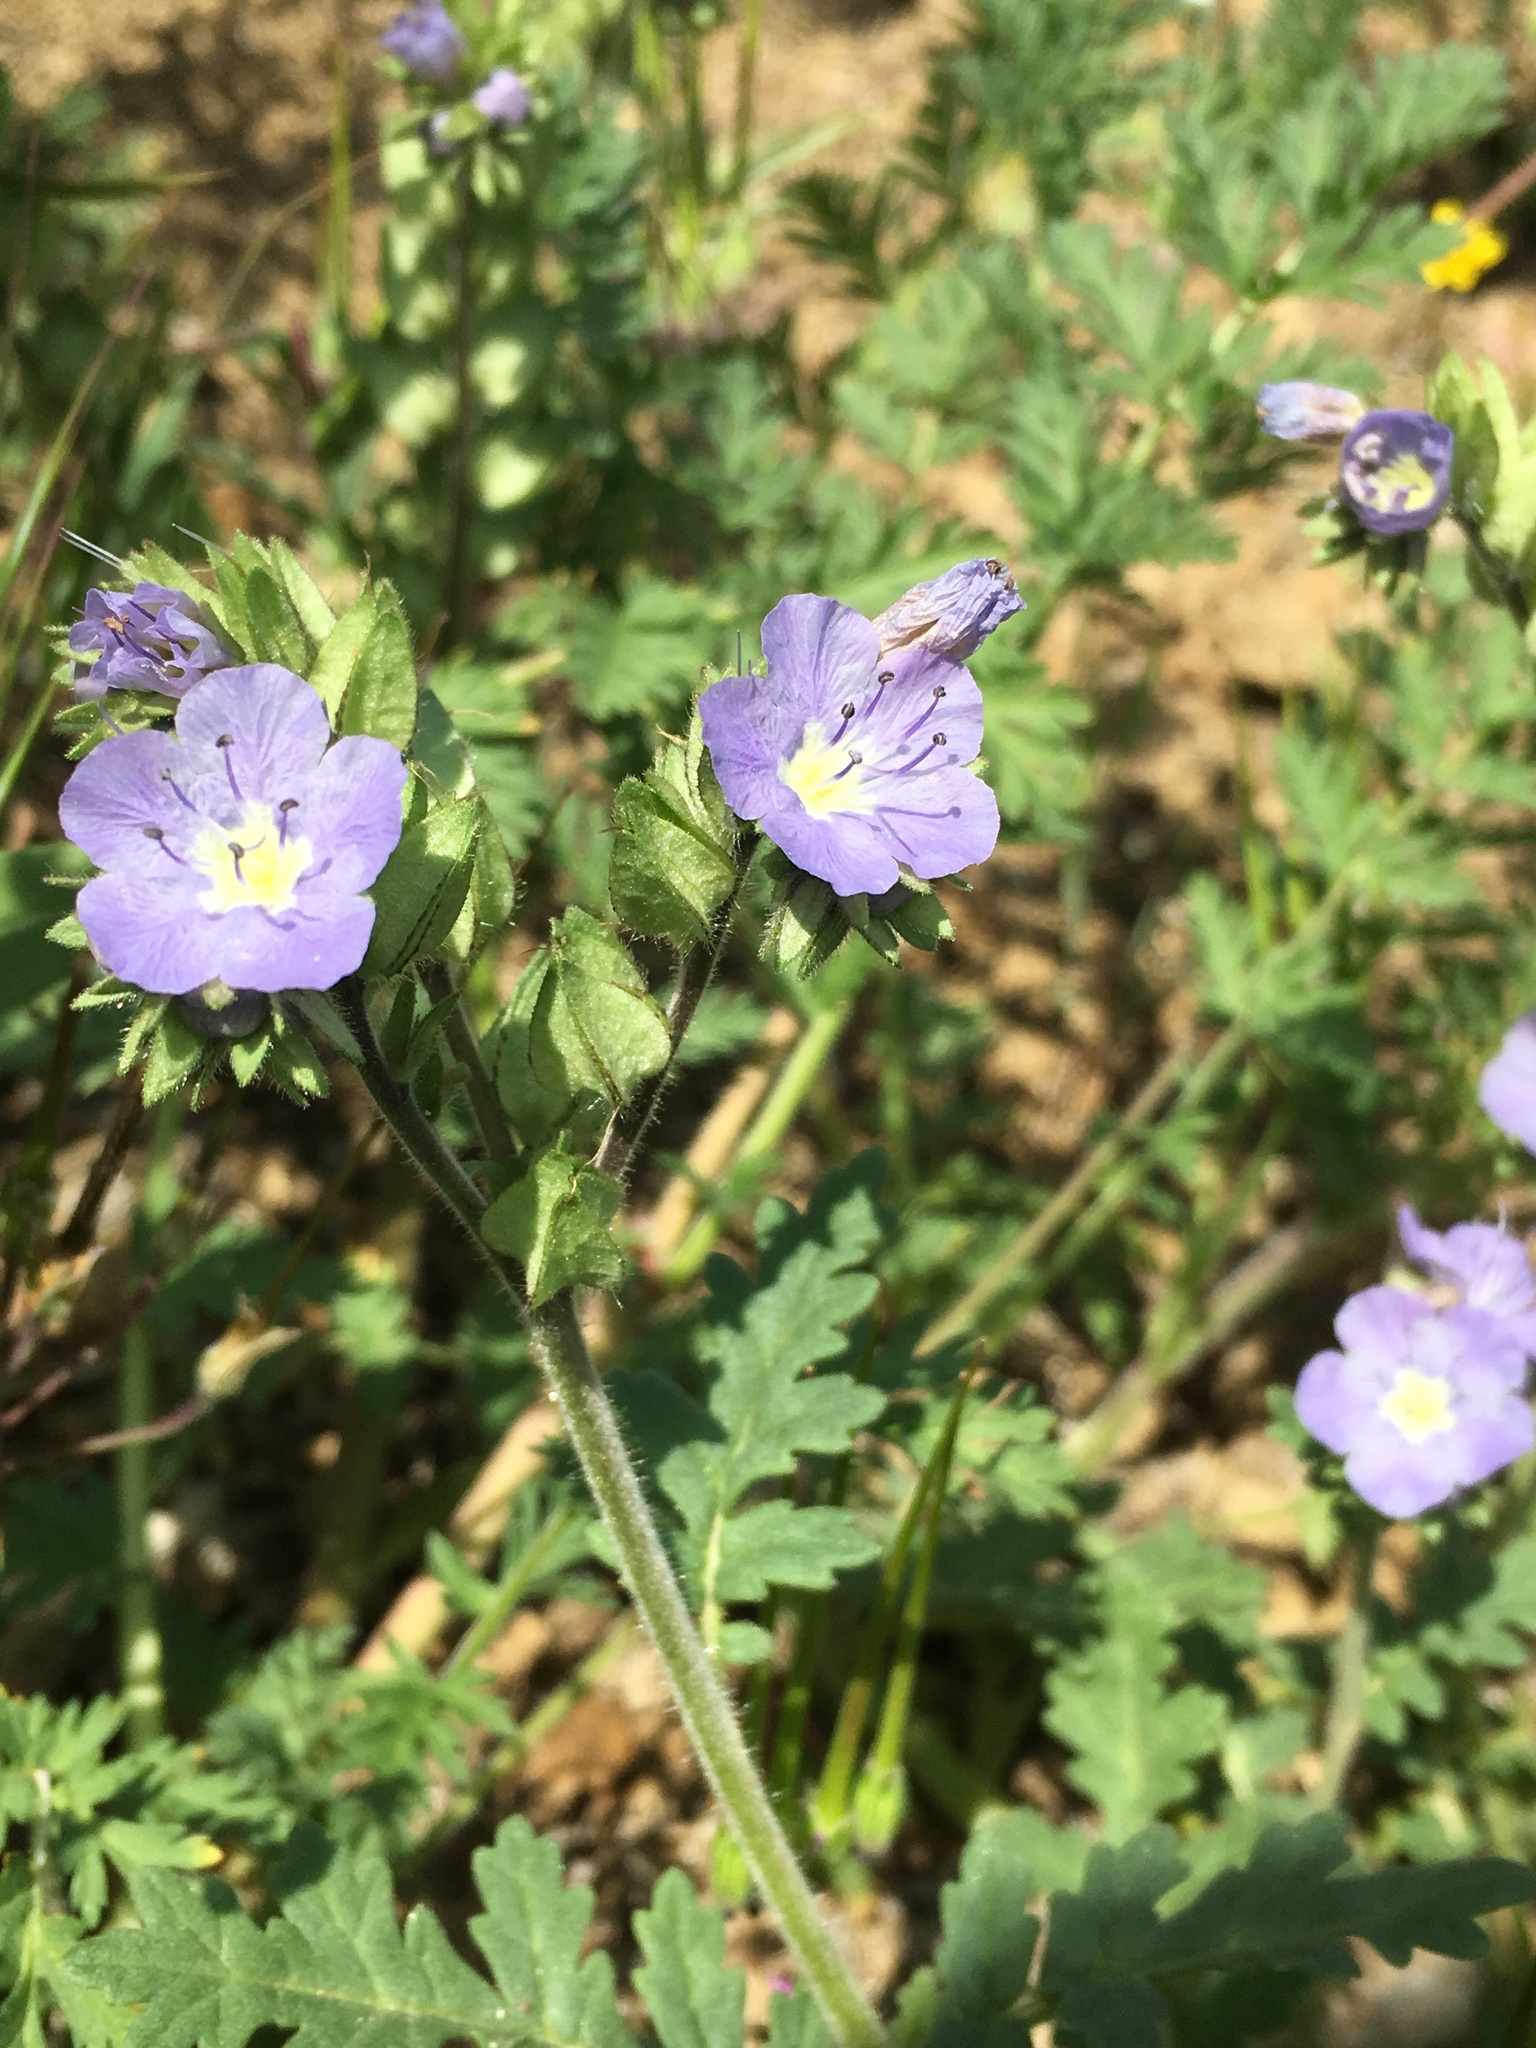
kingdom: Plantae
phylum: Tracheophyta
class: Magnoliopsida
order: Boraginales
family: Hydrophyllaceae
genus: Phacelia
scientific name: Phacelia ciliata
